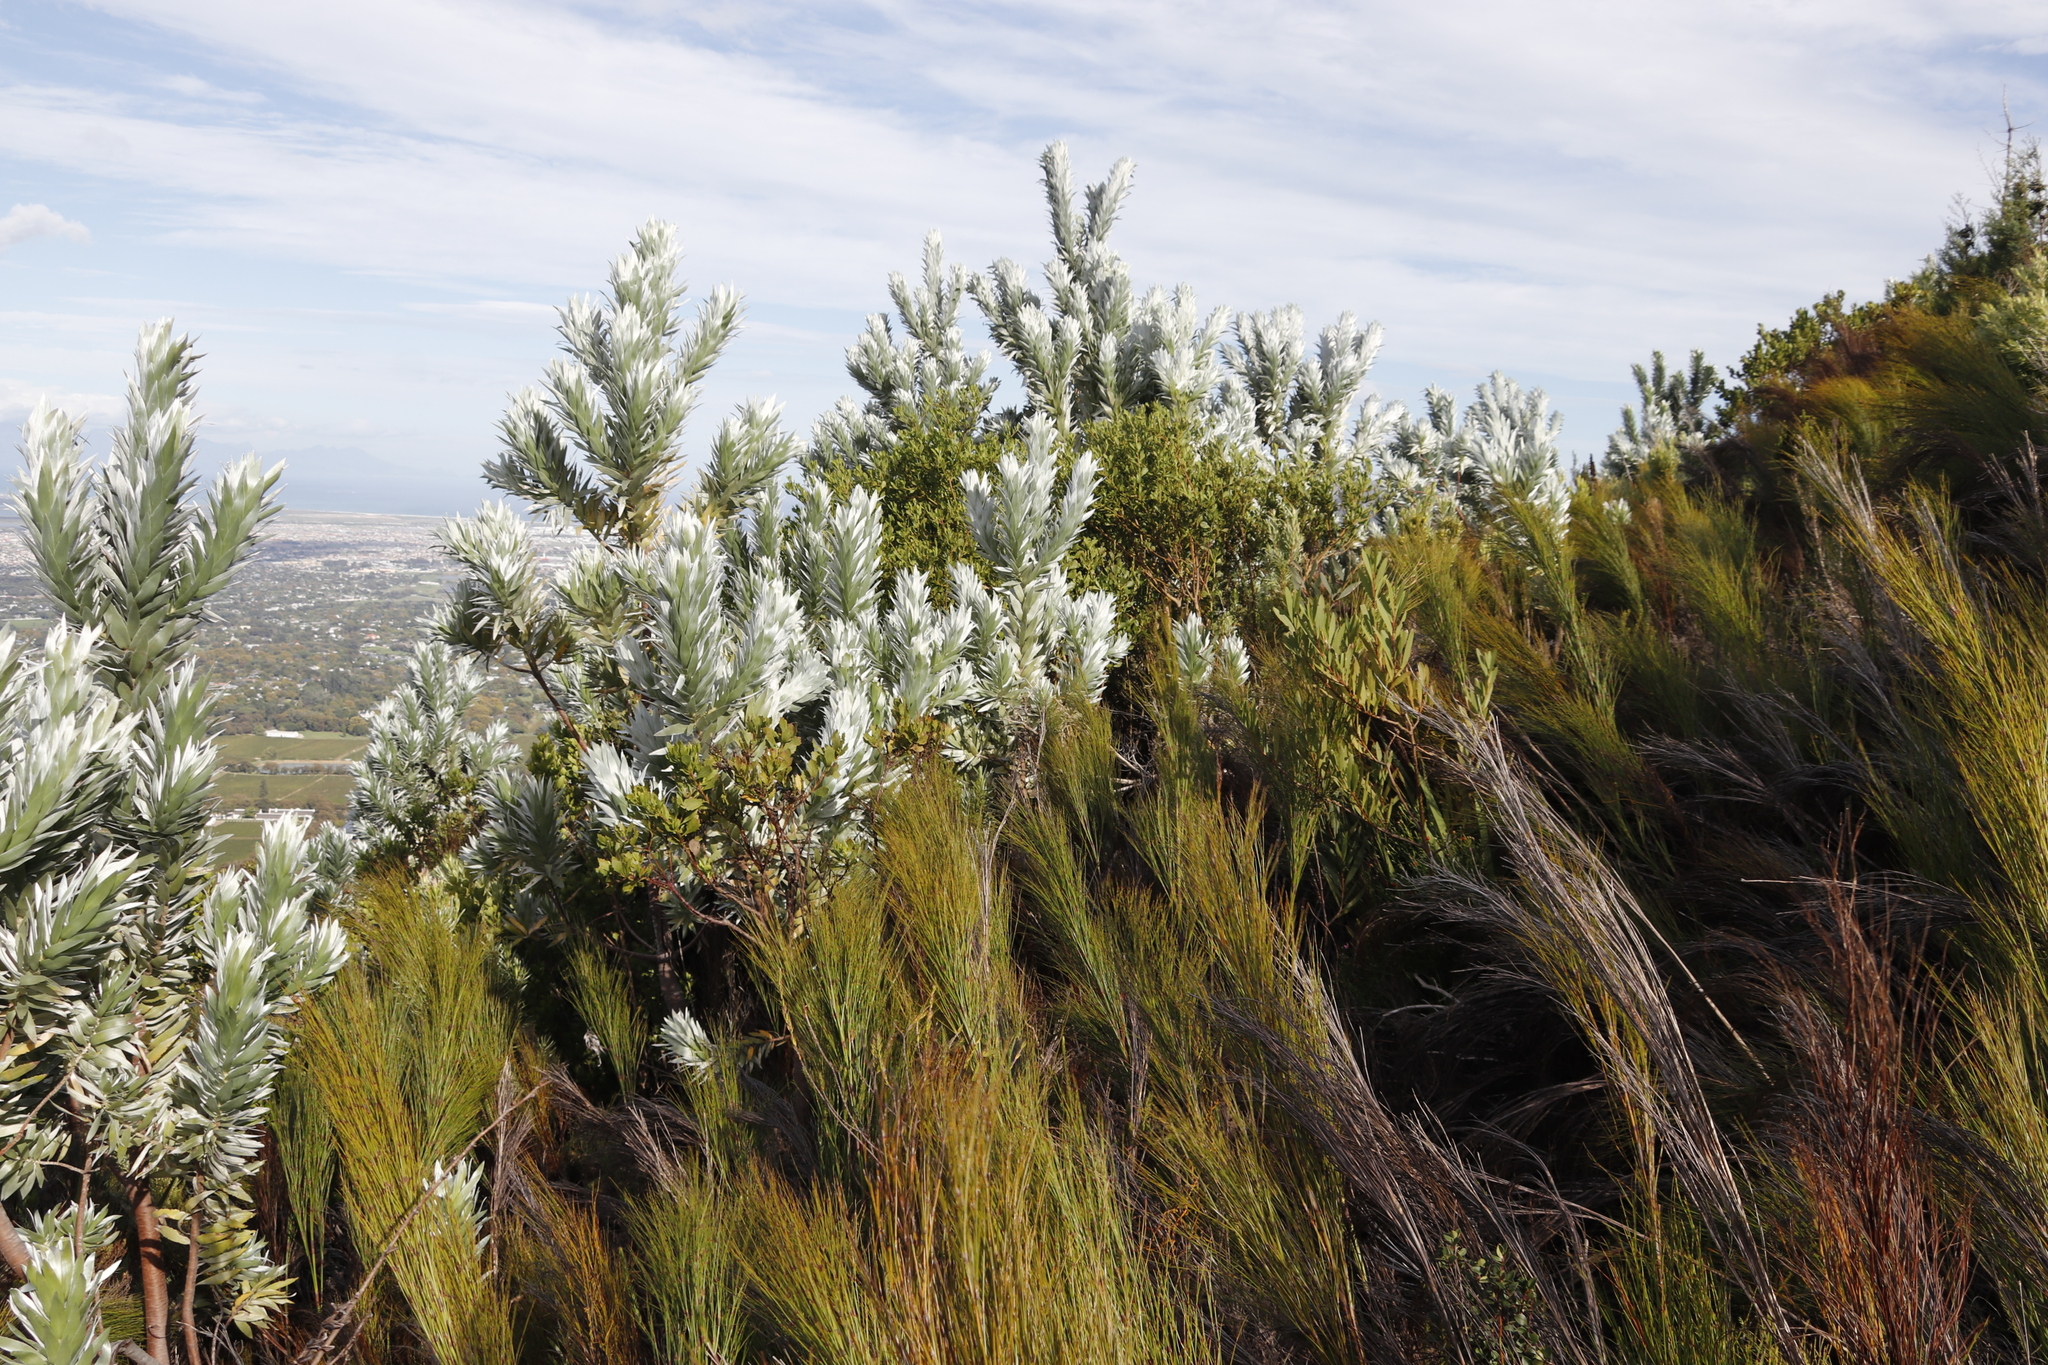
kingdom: Plantae
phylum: Tracheophyta
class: Magnoliopsida
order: Proteales
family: Proteaceae
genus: Leucadendron
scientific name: Leucadendron argenteum
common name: Cape silver tree
